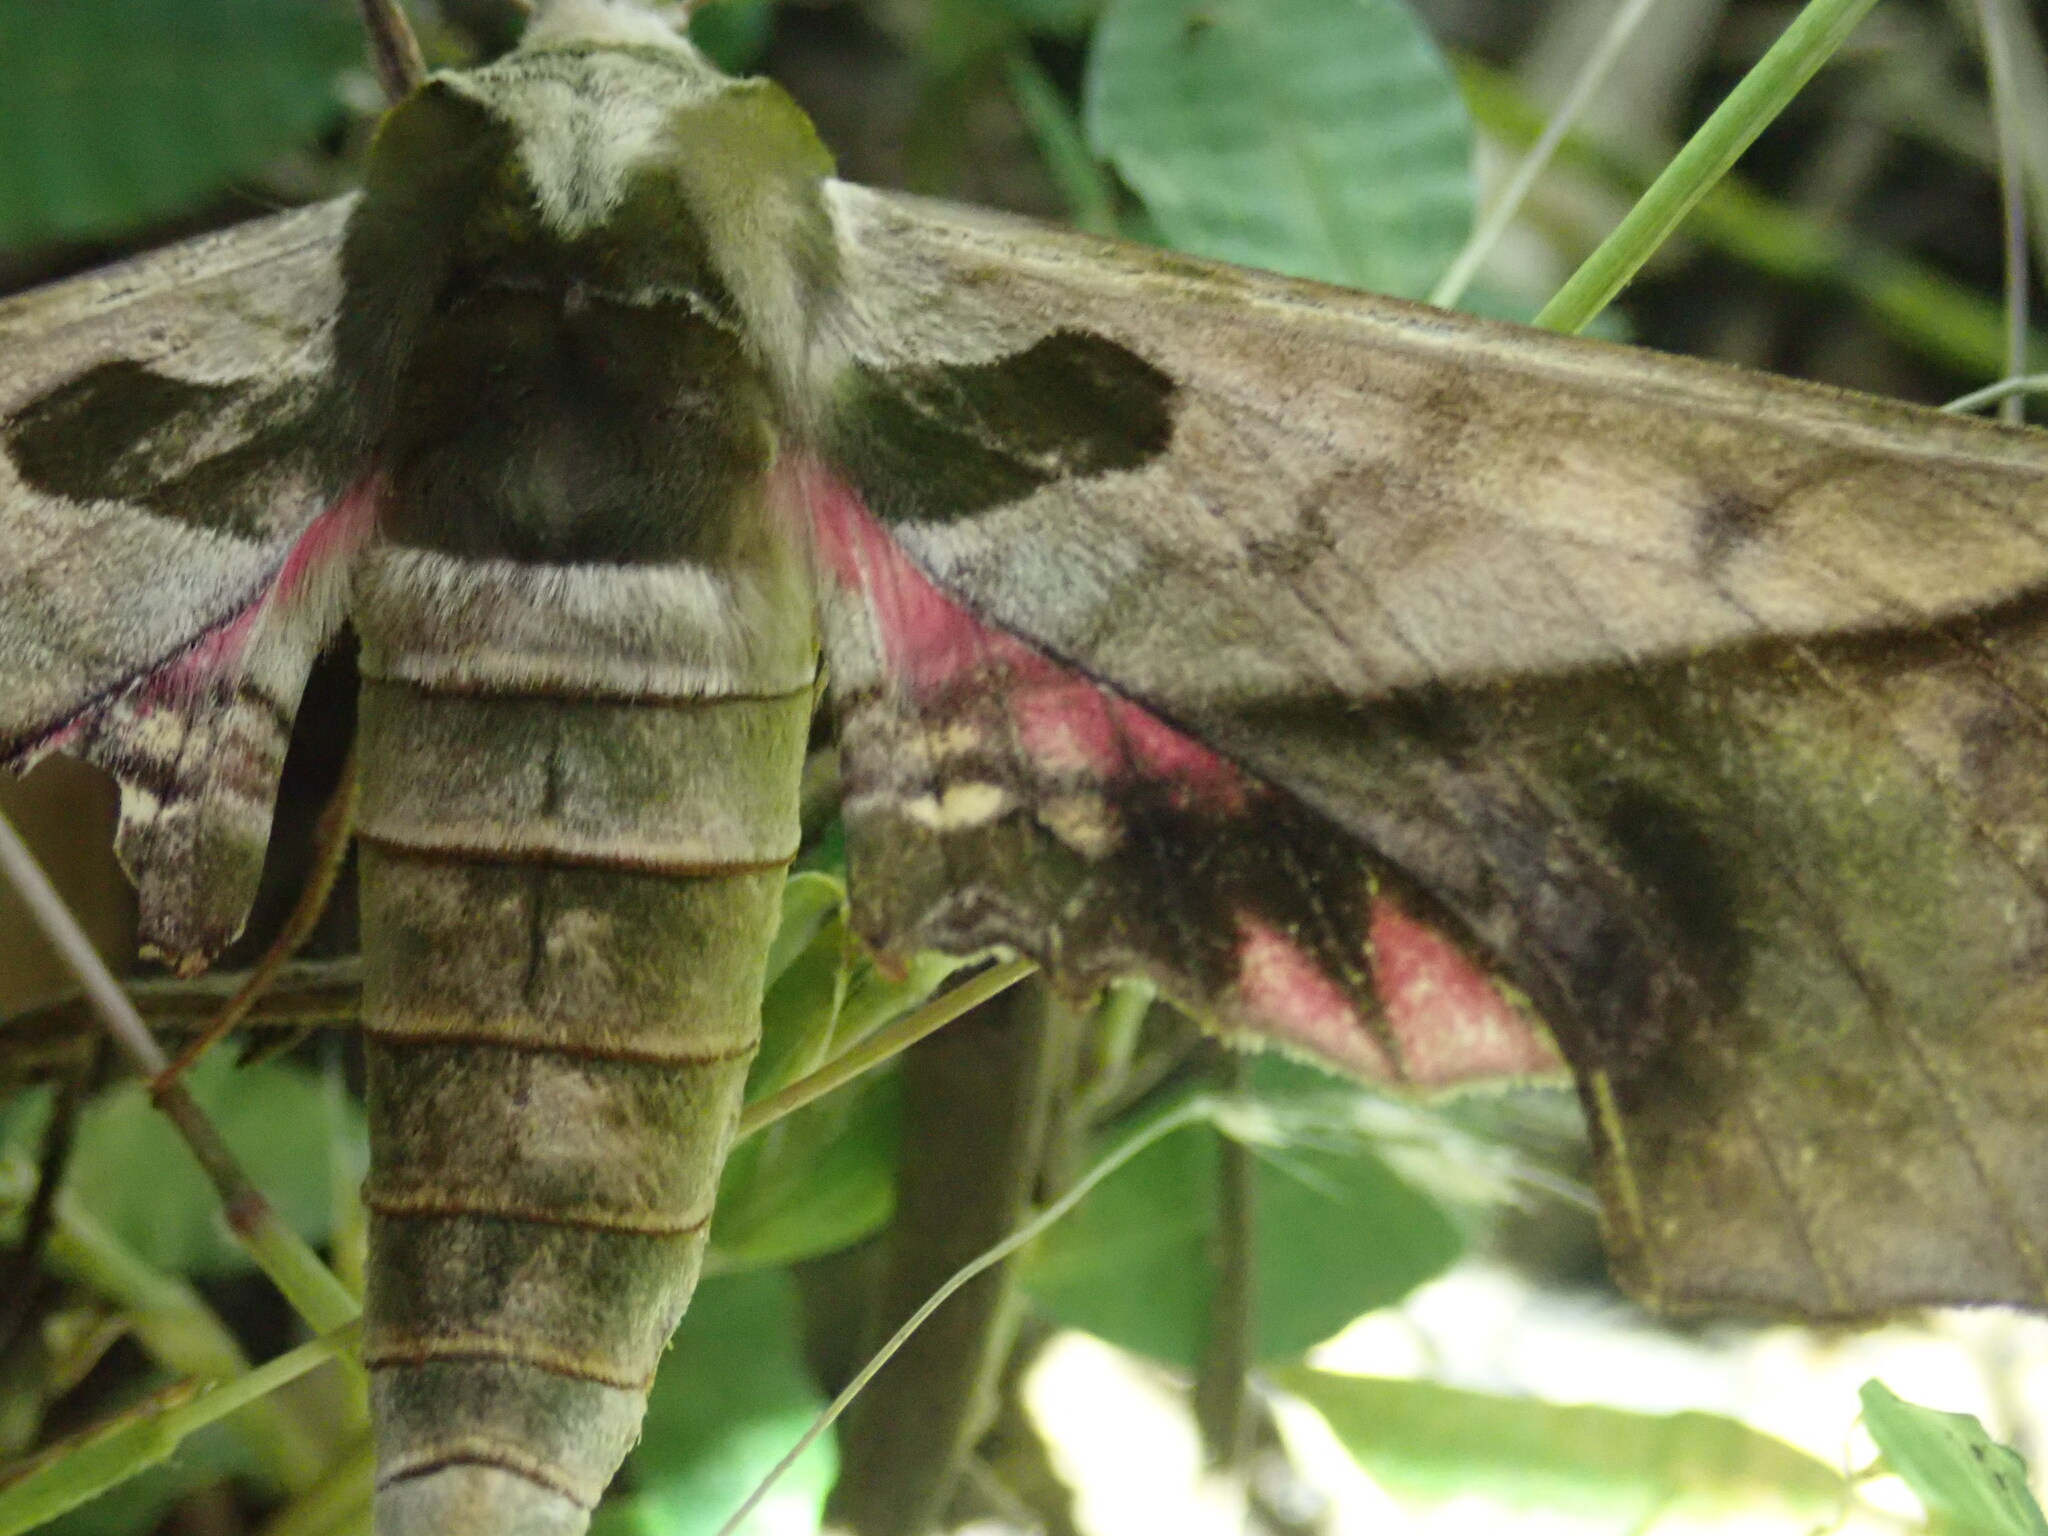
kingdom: Animalia
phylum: Arthropoda
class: Insecta
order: Lepidoptera
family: Sphingidae
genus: Adhemarius
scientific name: Adhemarius dariensis
